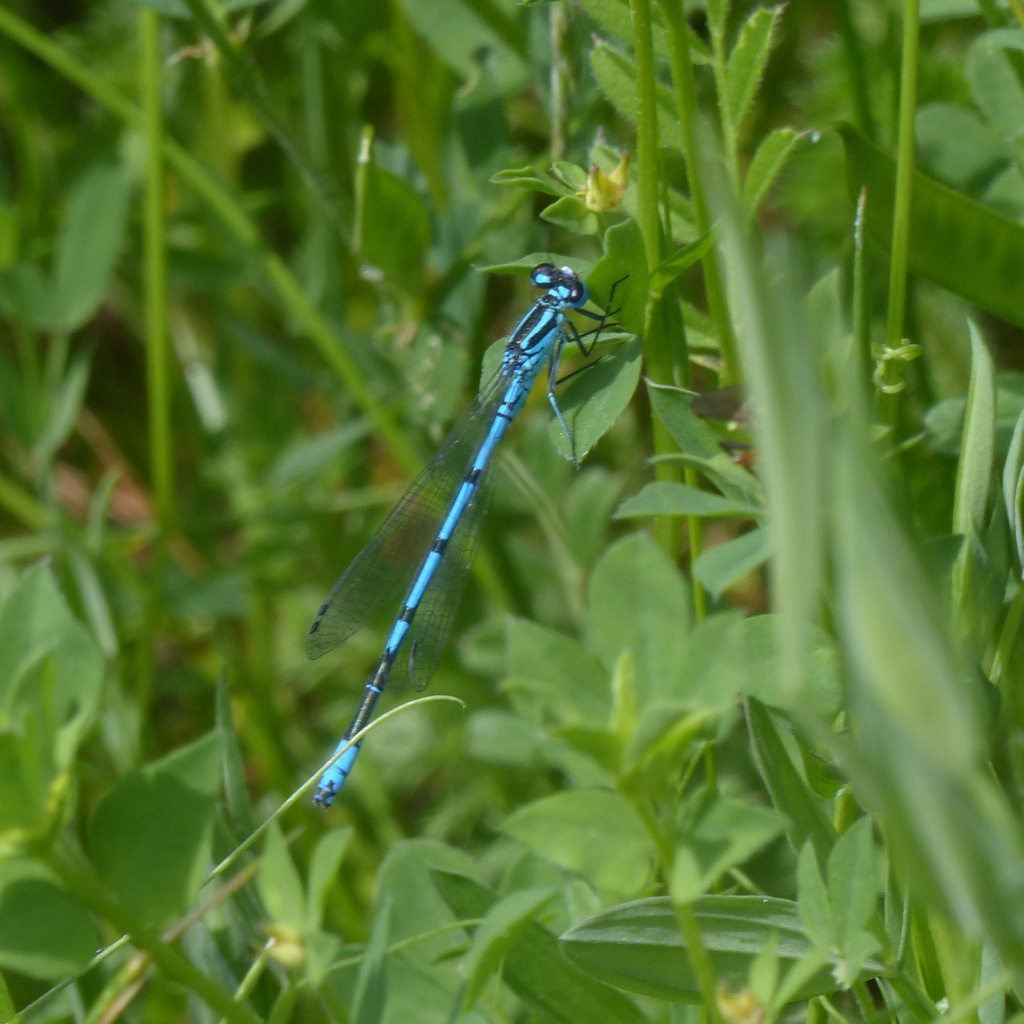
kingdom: Animalia
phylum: Arthropoda
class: Insecta
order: Odonata
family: Coenagrionidae
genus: Coenagrion
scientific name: Coenagrion puella
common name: Azure damselfly
